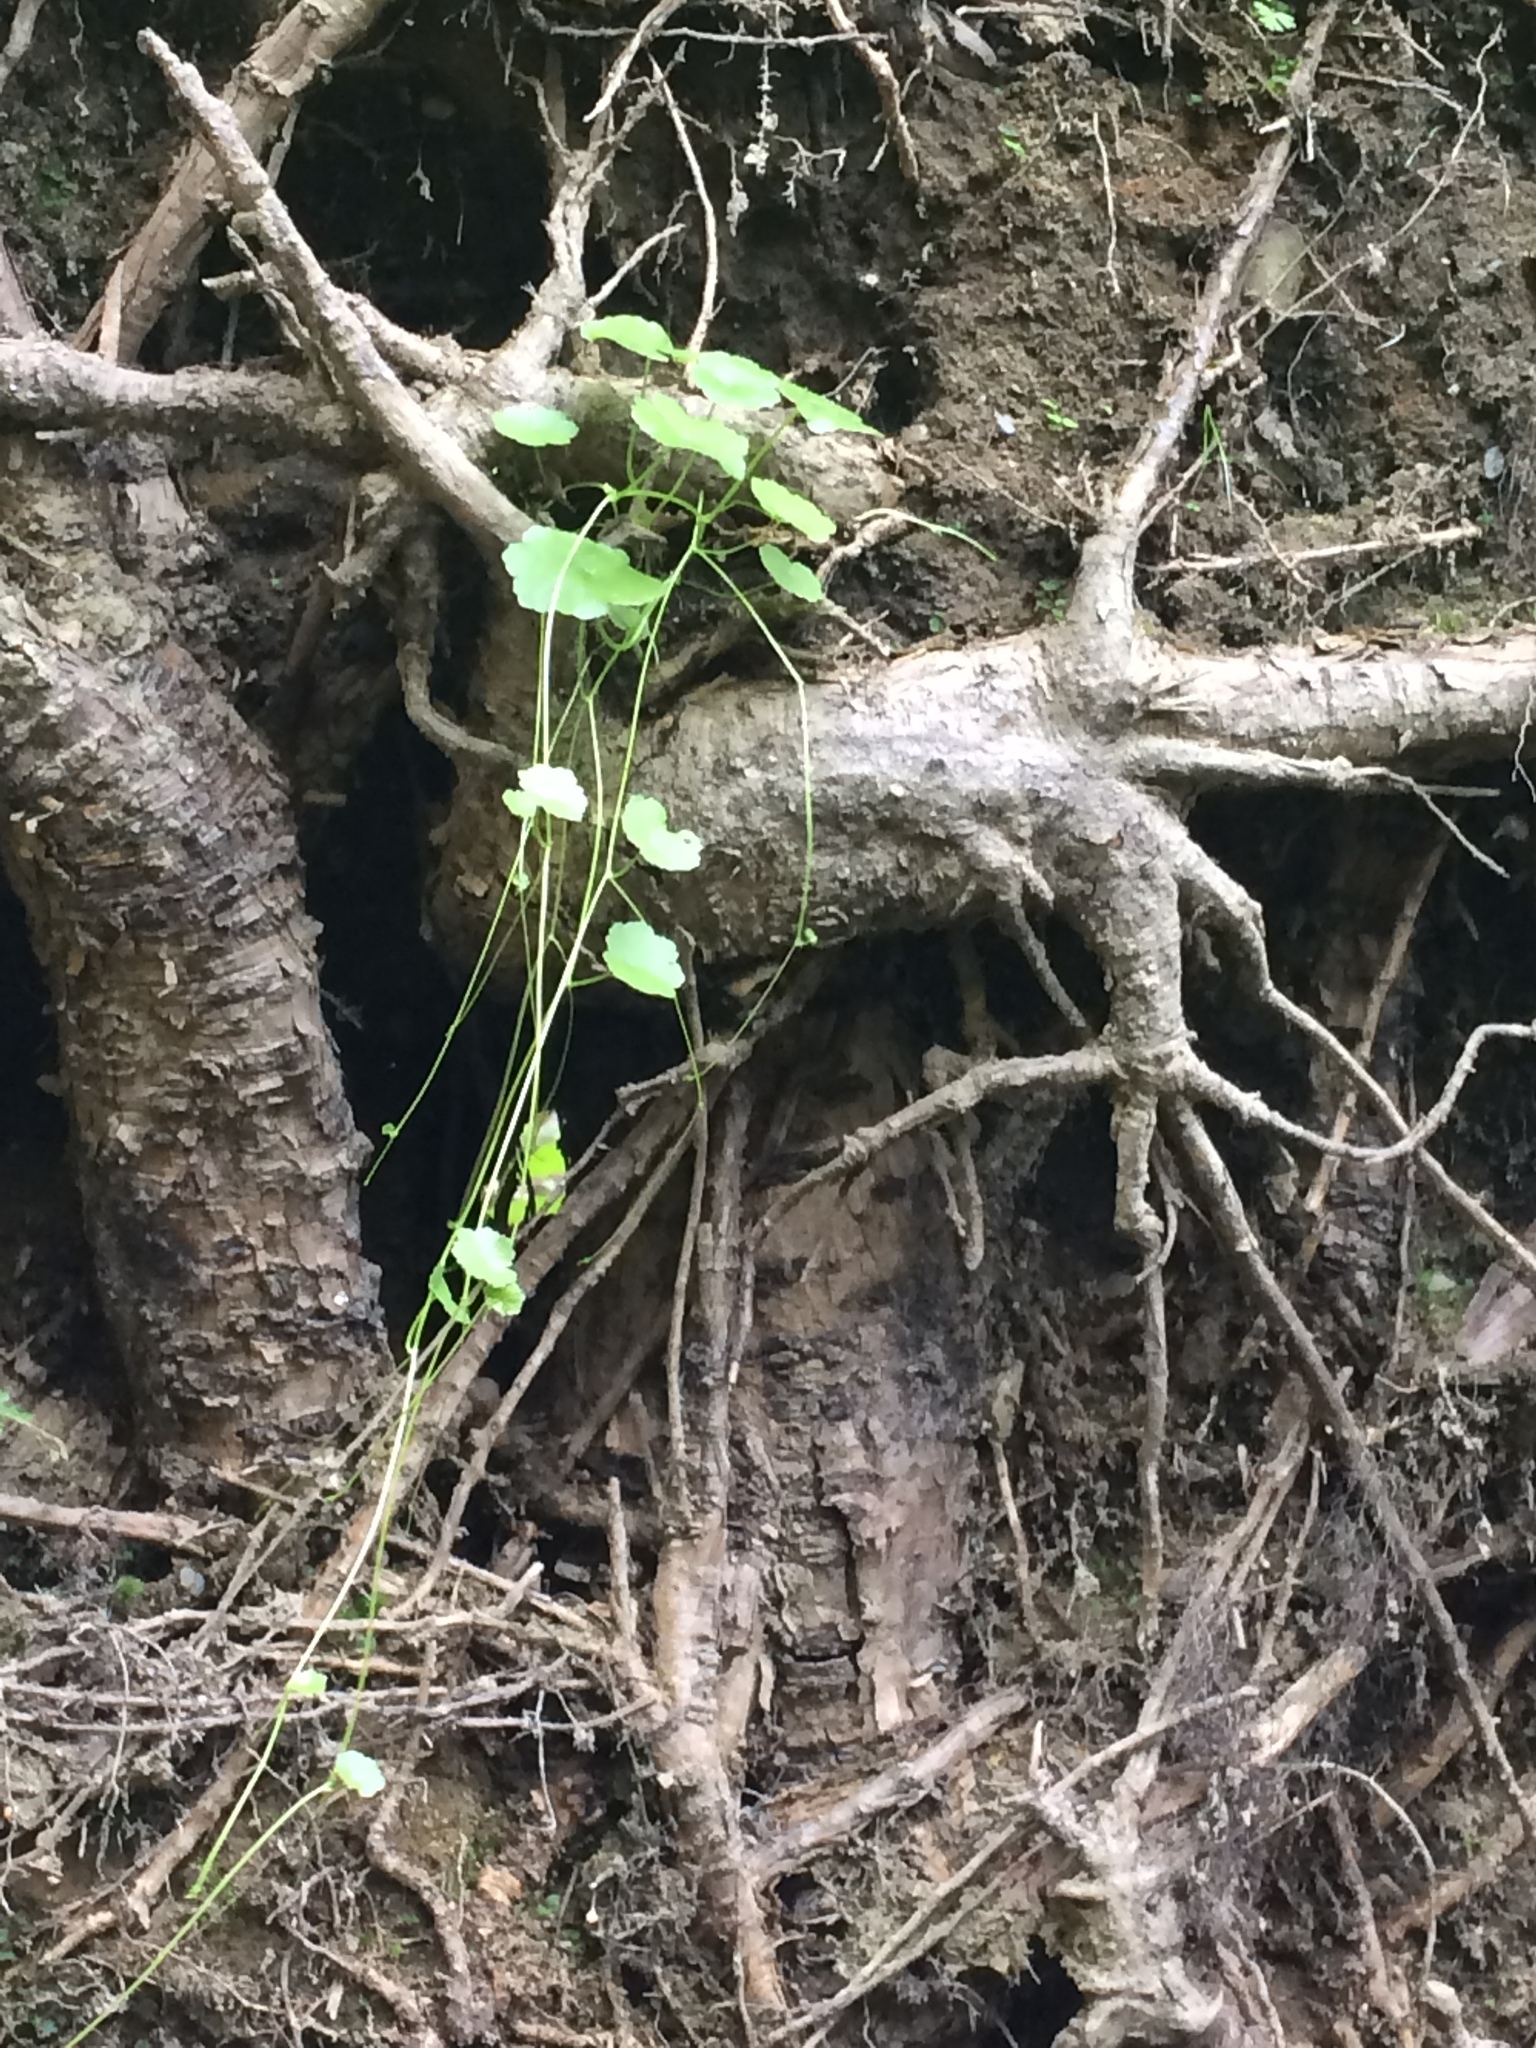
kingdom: Plantae
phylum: Tracheophyta
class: Magnoliopsida
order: Apiales
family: Araliaceae
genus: Hydrocotyle
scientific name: Hydrocotyle americana
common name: American water-pennywort
